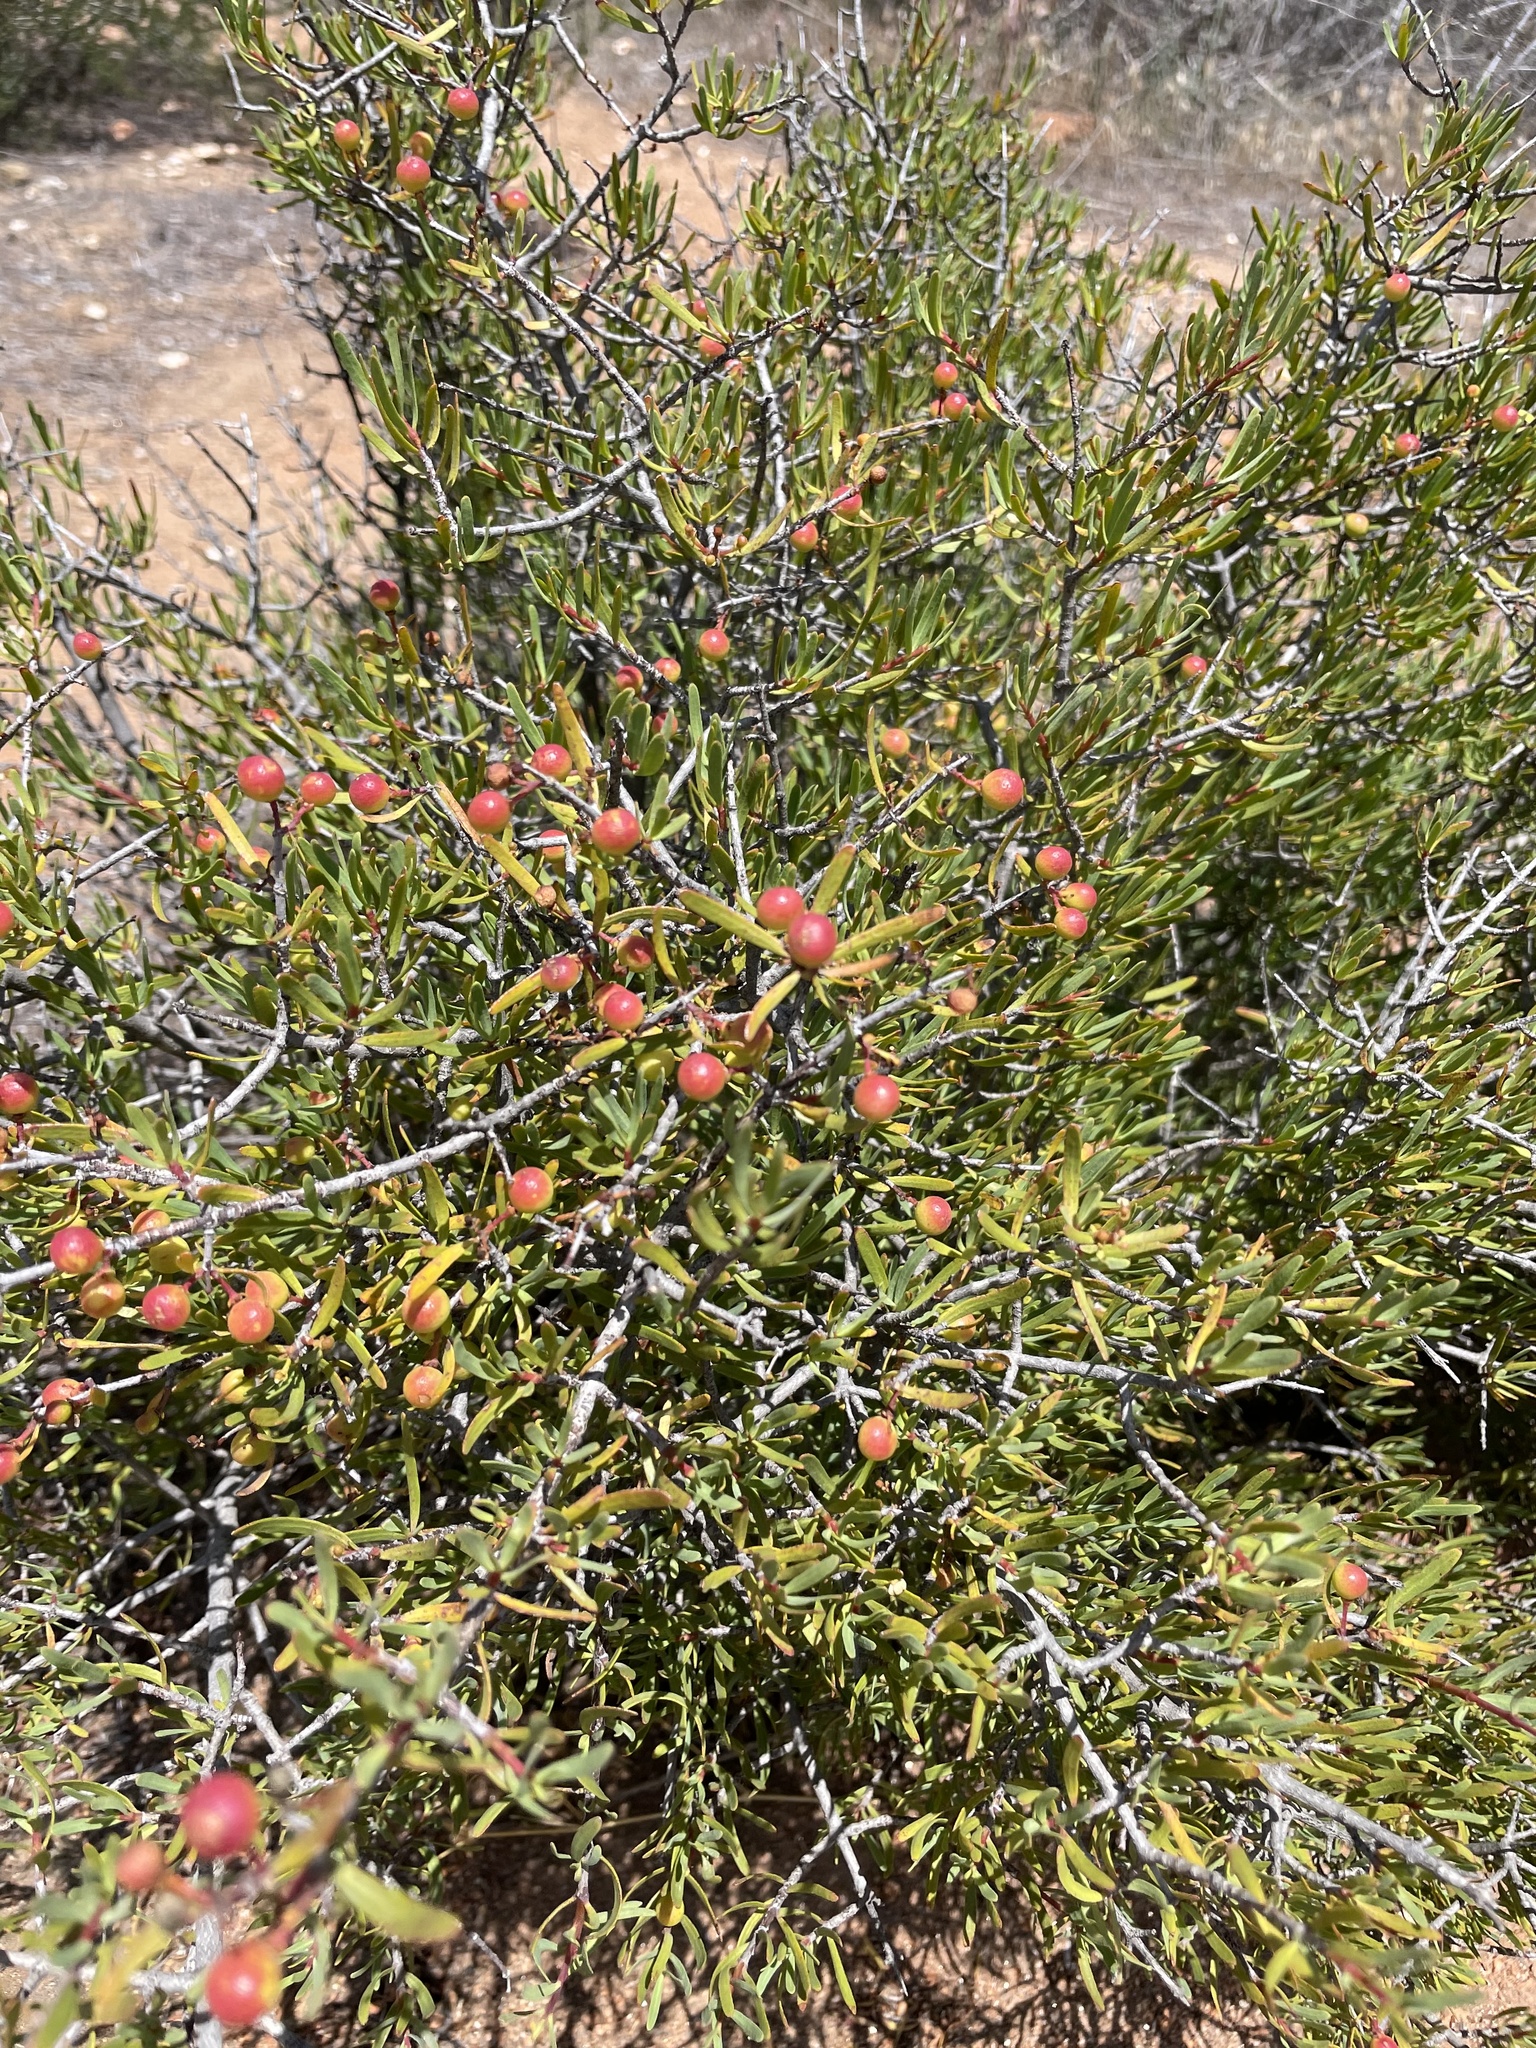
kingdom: Plantae
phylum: Tracheophyta
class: Magnoliopsida
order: Sapindales
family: Rutaceae
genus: Cneoridium
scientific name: Cneoridium dumosum
